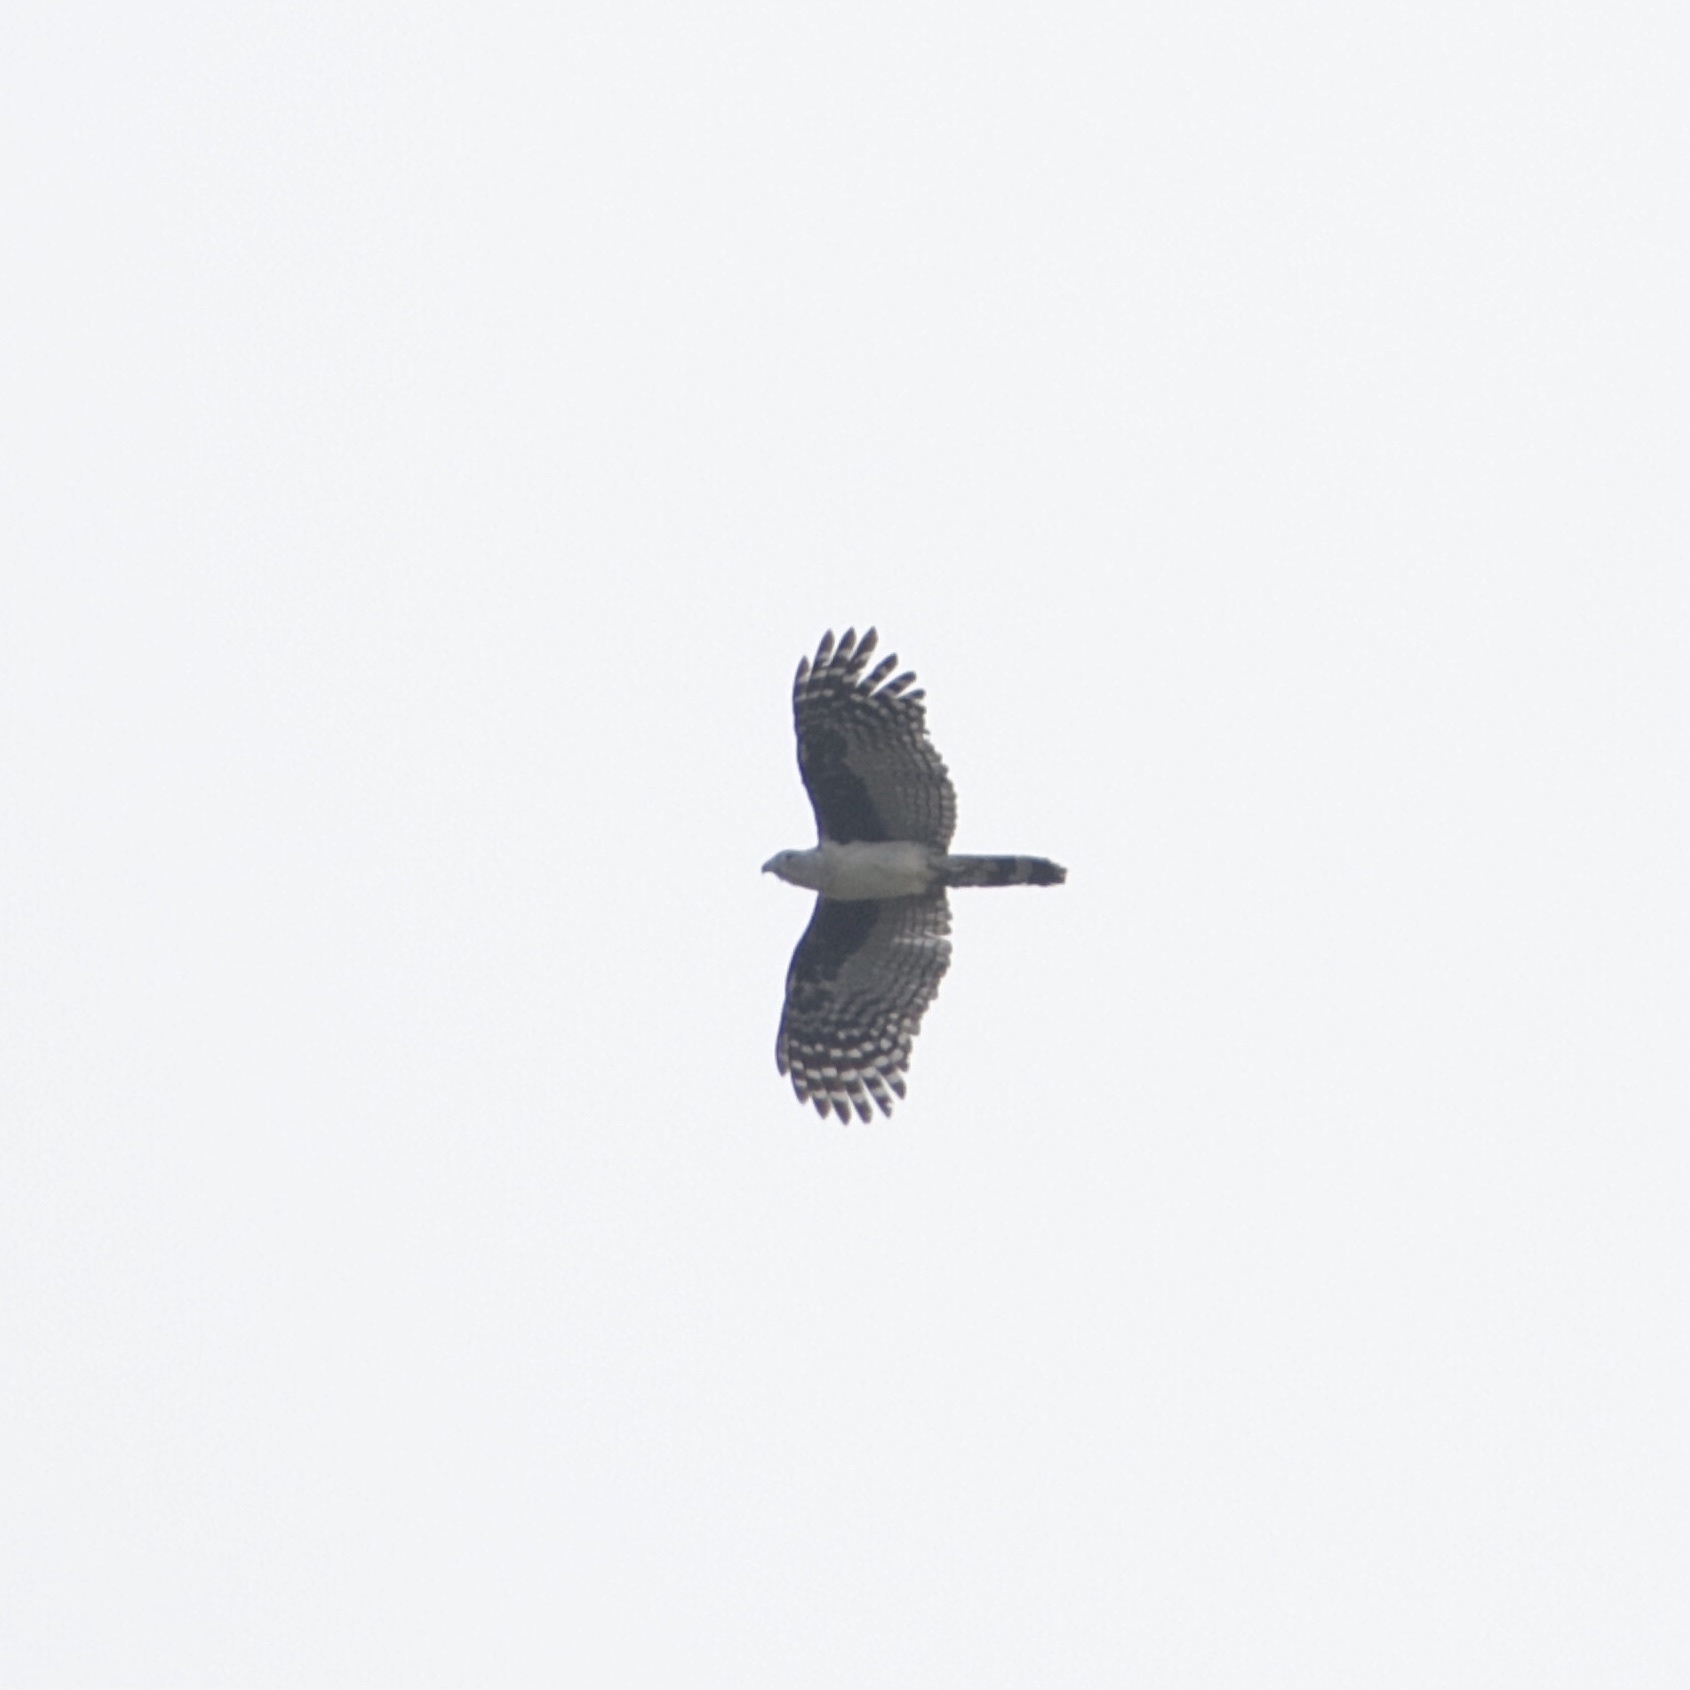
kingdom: Animalia
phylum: Chordata
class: Aves
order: Accipitriformes
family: Accipitridae
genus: Leptodon
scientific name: Leptodon cayanensis
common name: Gray-headed kite
